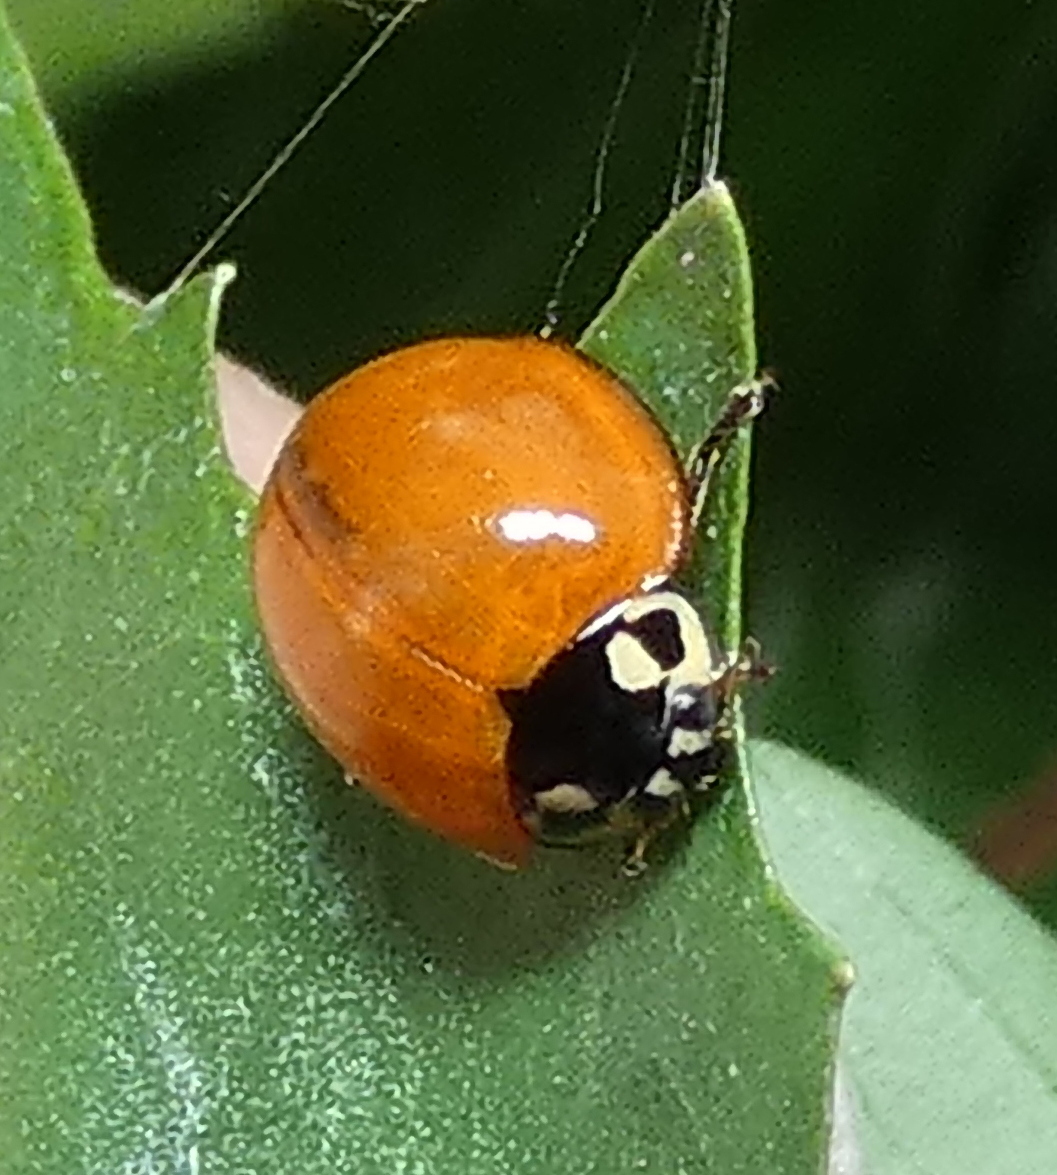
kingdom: Animalia
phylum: Arthropoda
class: Insecta
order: Coleoptera
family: Coccinellidae
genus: Cycloneda
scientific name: Cycloneda sanguinea
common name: Ladybird beetle
